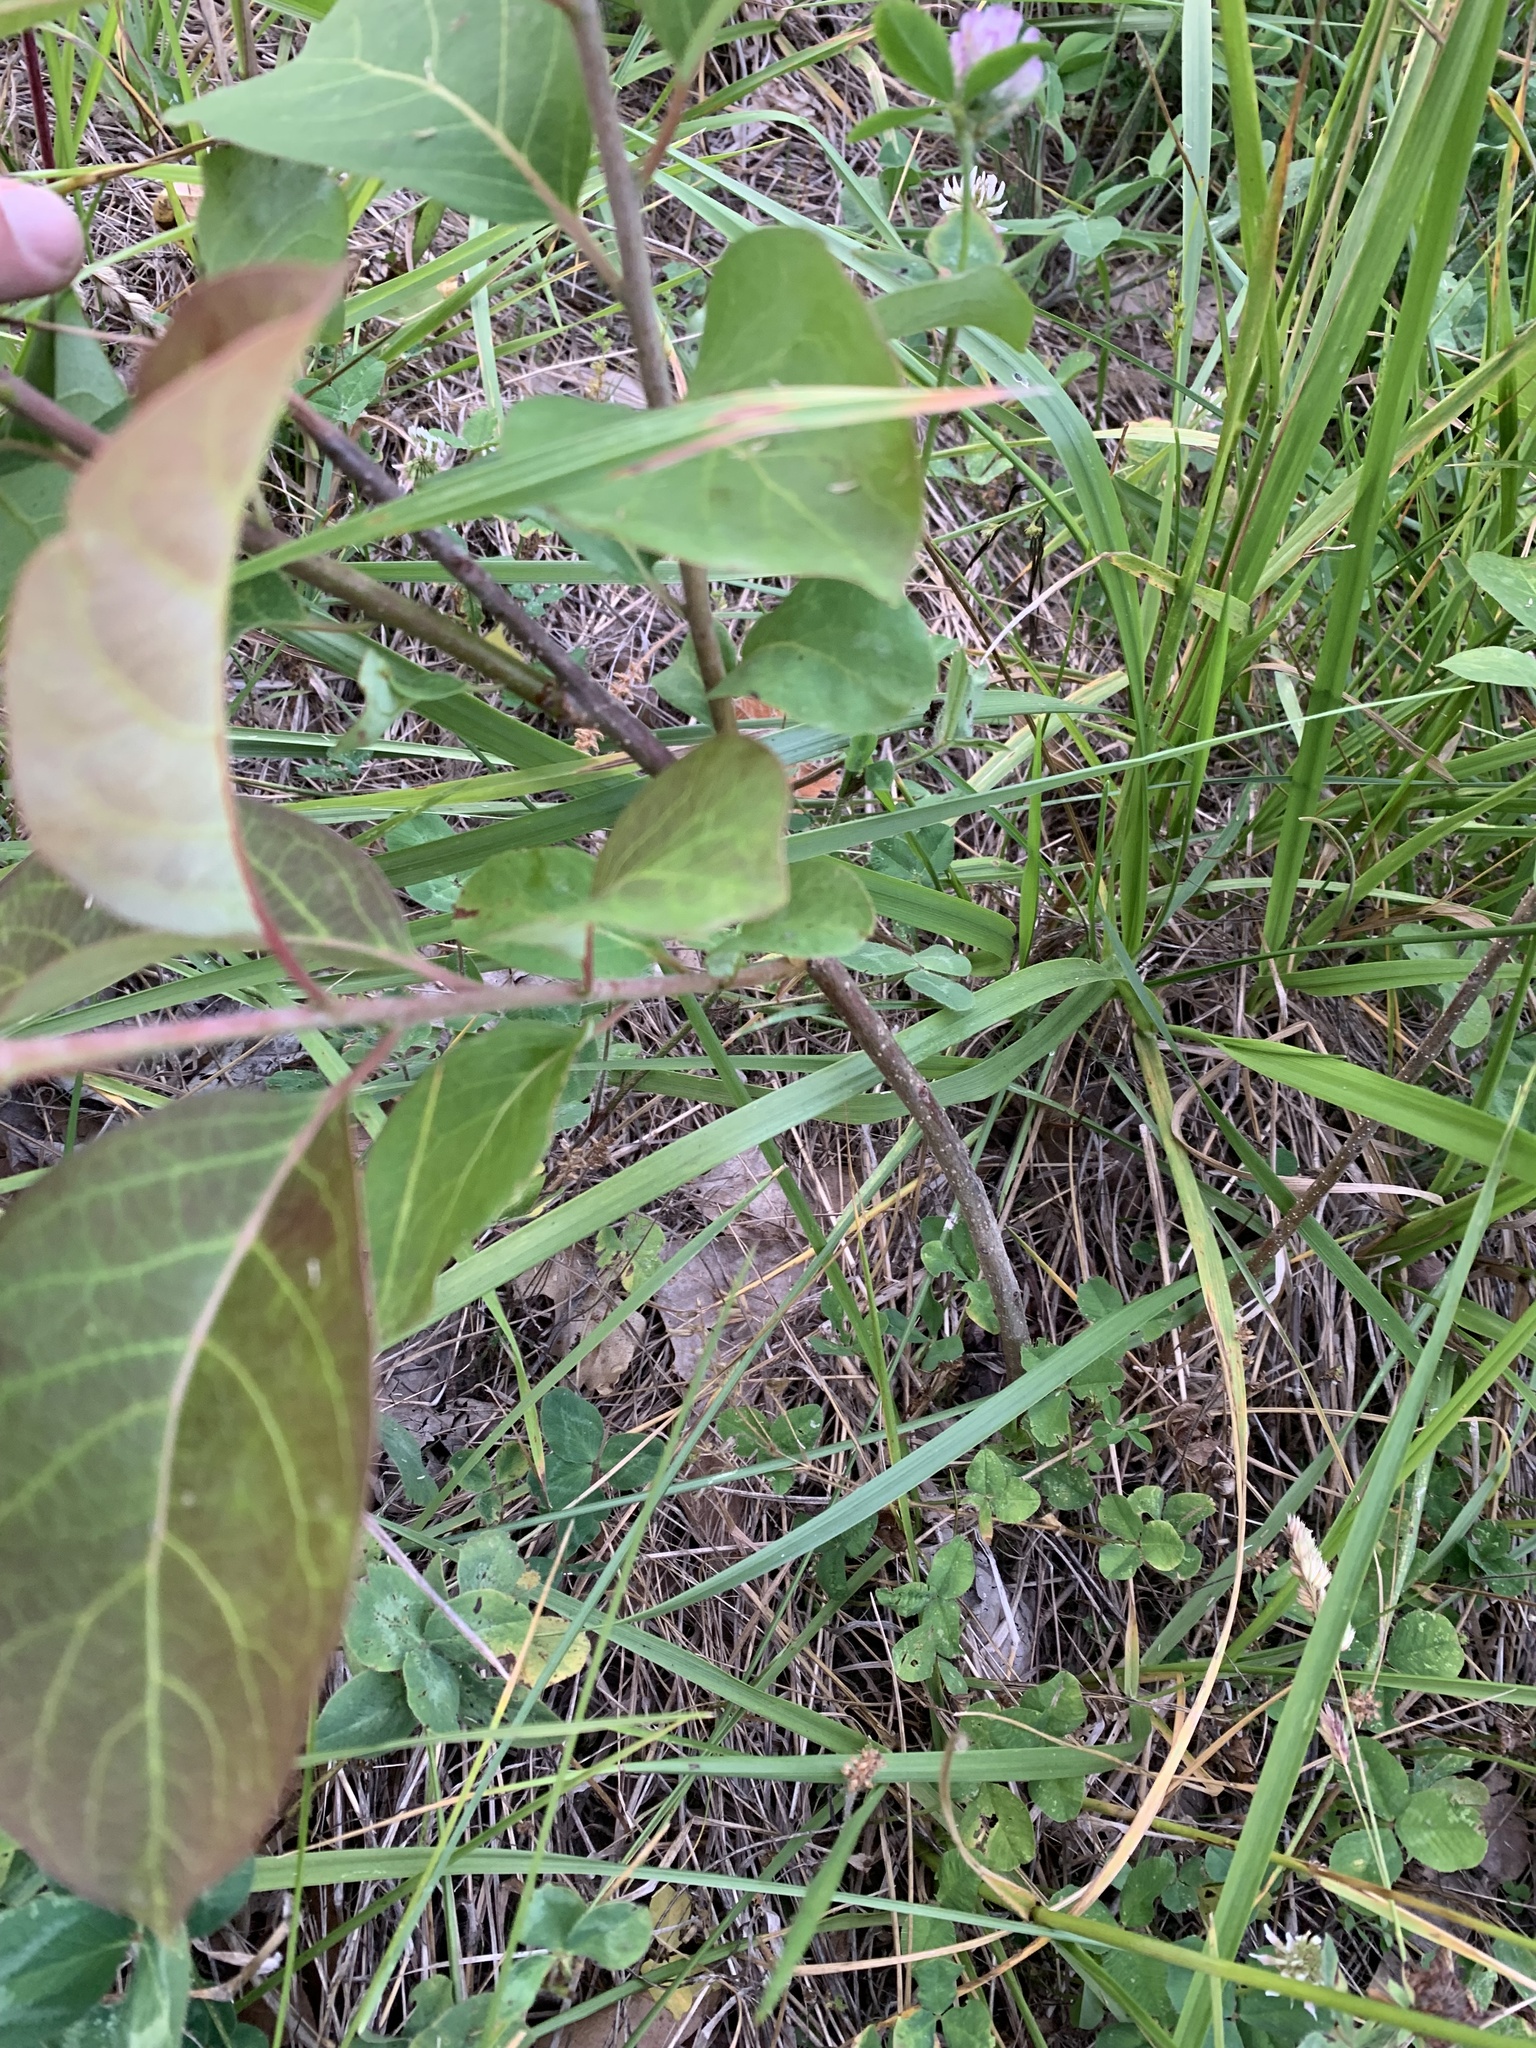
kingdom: Plantae
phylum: Tracheophyta
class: Magnoliopsida
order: Ericales
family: Ebenaceae
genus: Diospyros
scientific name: Diospyros virginiana
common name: Persimmon
